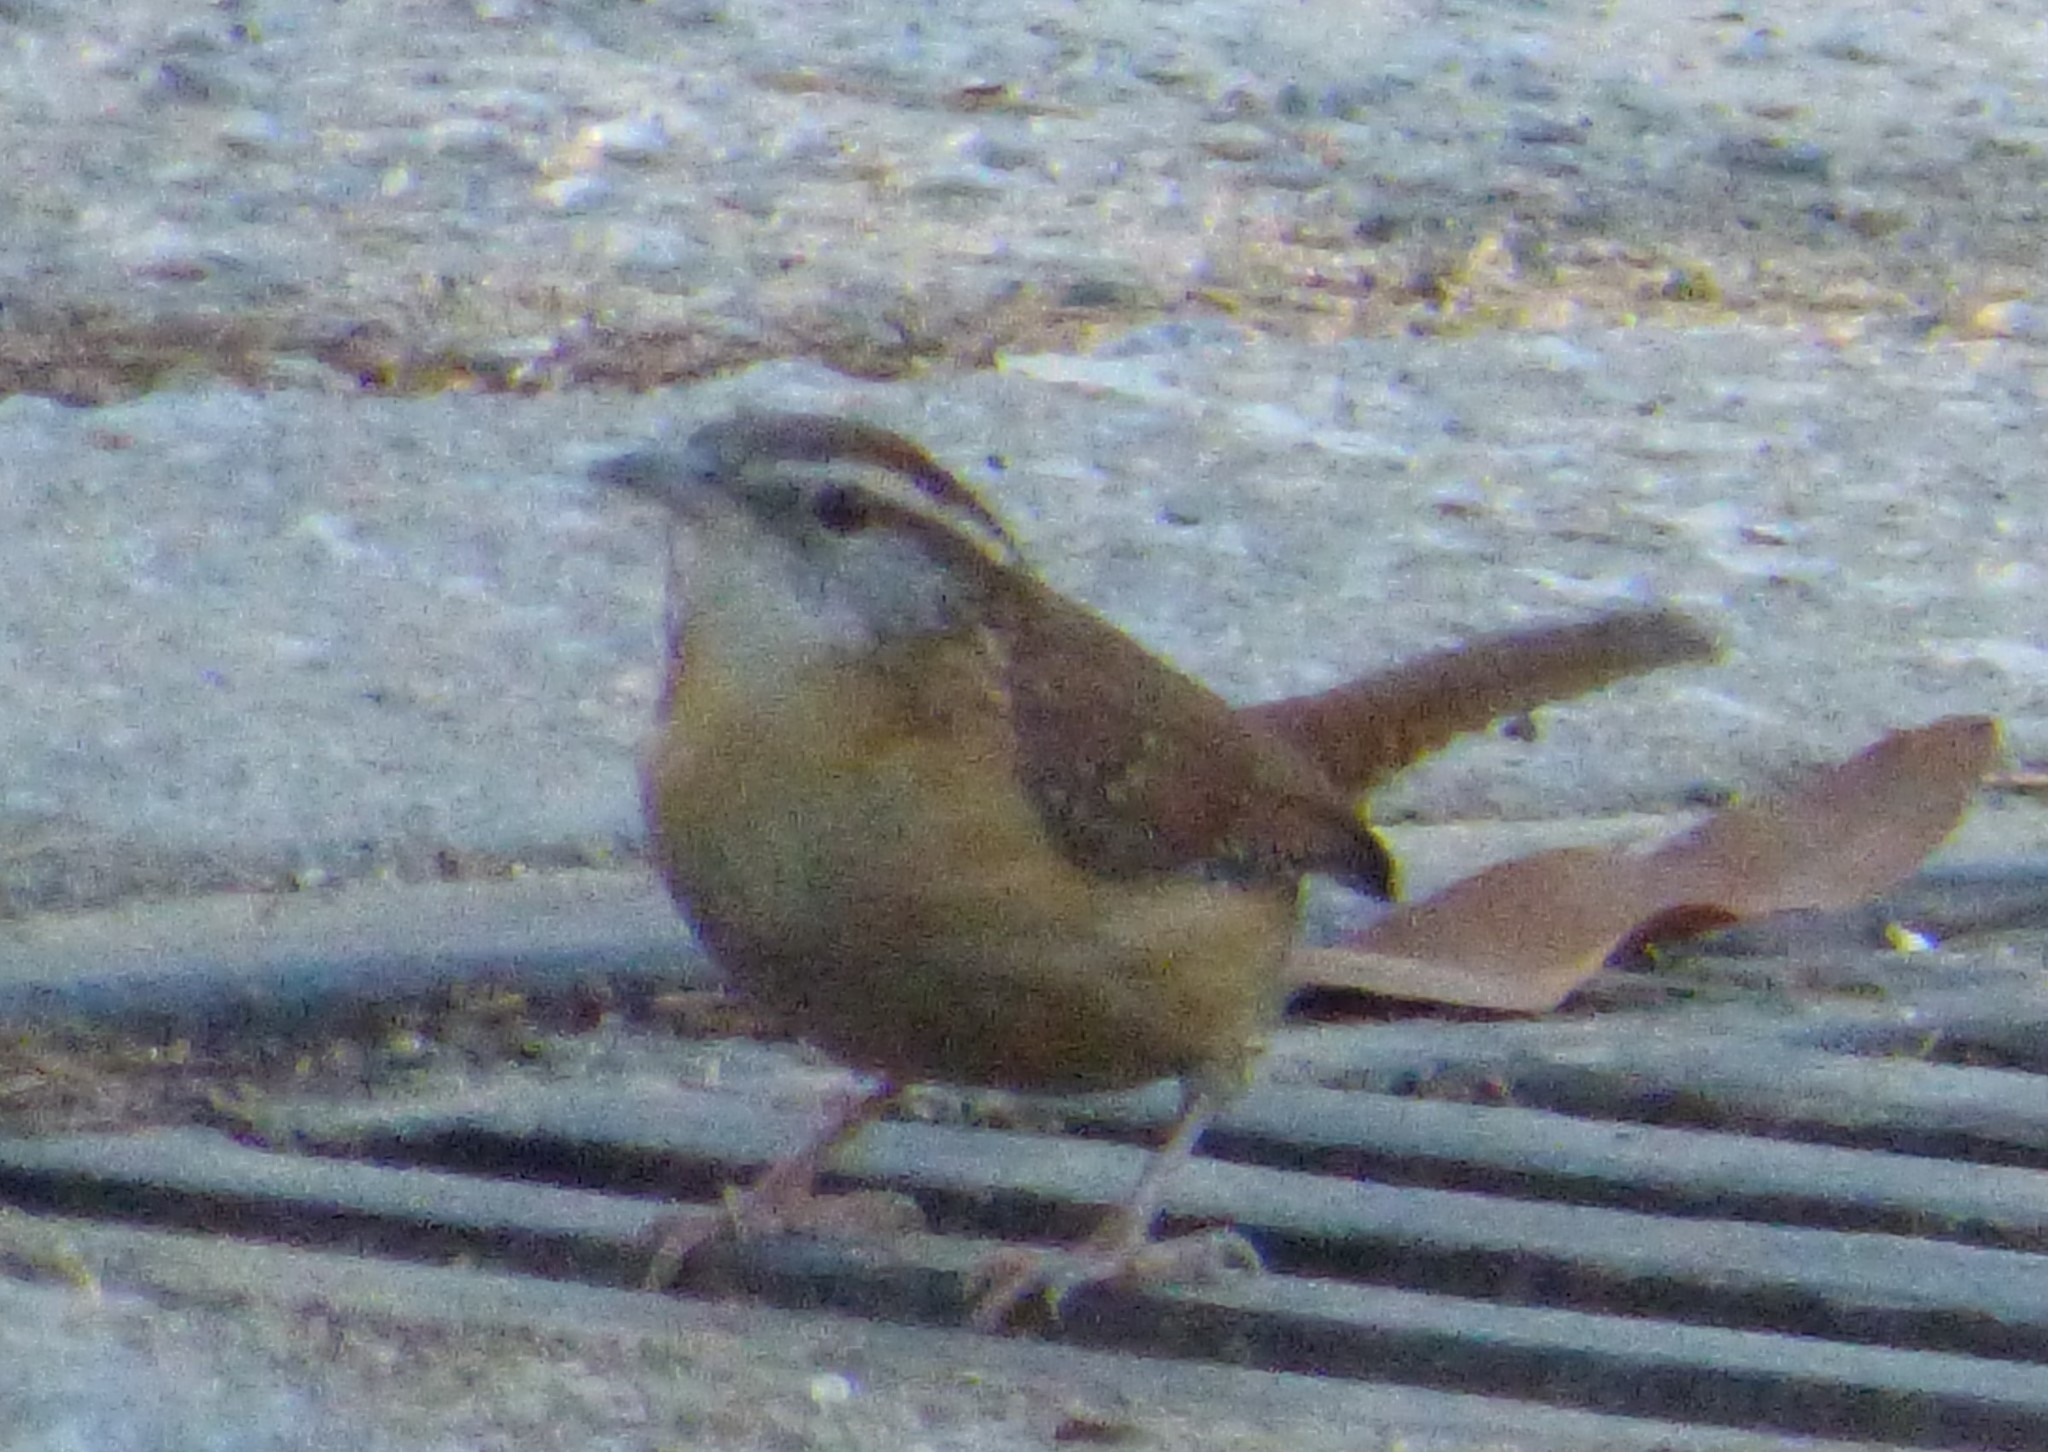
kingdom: Animalia
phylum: Chordata
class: Aves
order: Passeriformes
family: Troglodytidae
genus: Thryothorus
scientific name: Thryothorus ludovicianus
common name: Carolina wren
